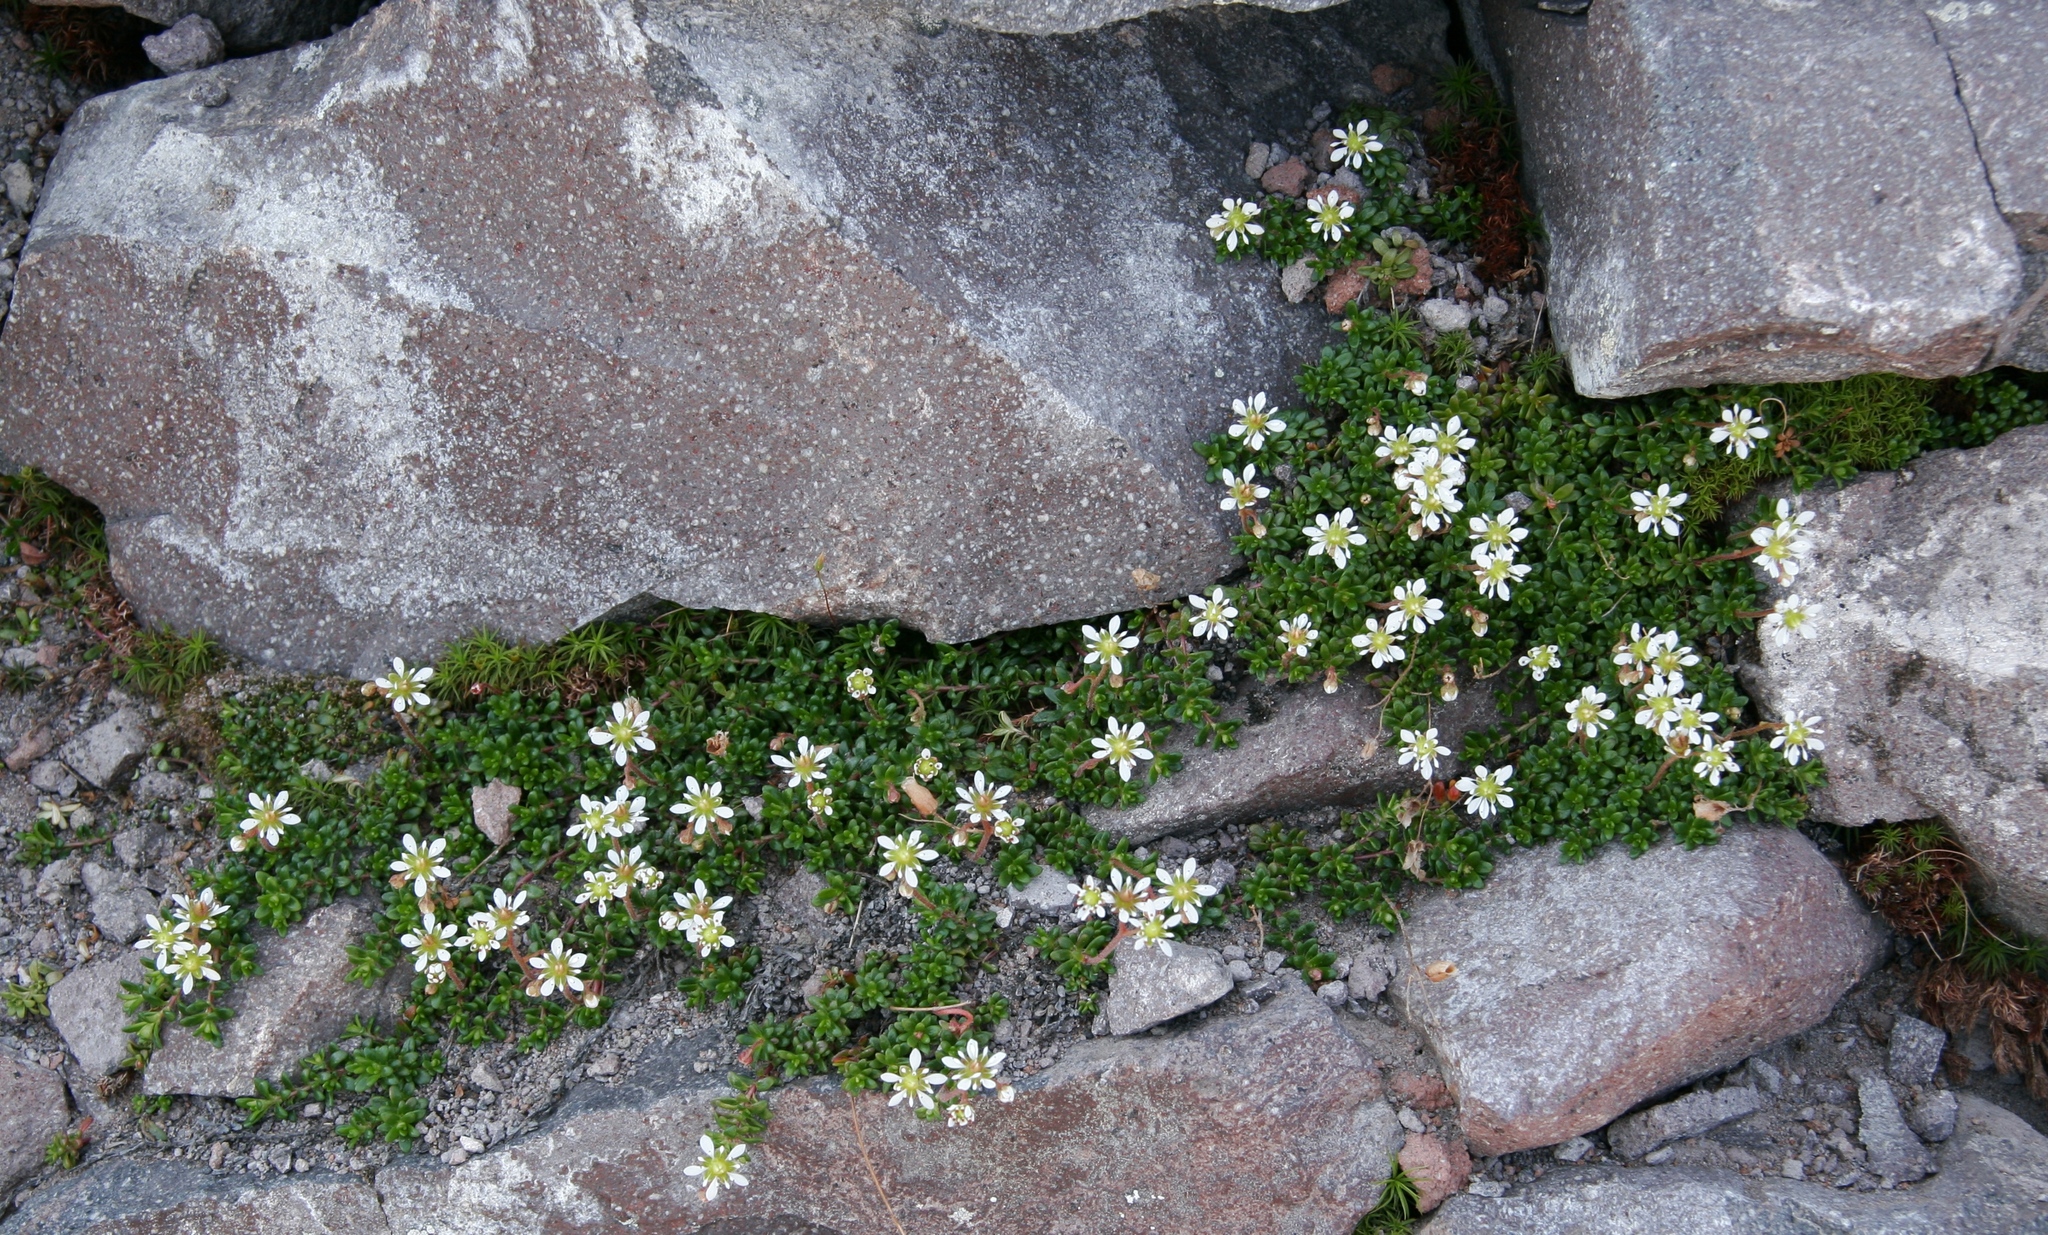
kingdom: Plantae
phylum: Tracheophyta
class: Magnoliopsida
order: Saxifragales
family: Saxifragaceae
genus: Micranthes
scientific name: Micranthes tolmiei
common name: Tolmie's saxifrage
